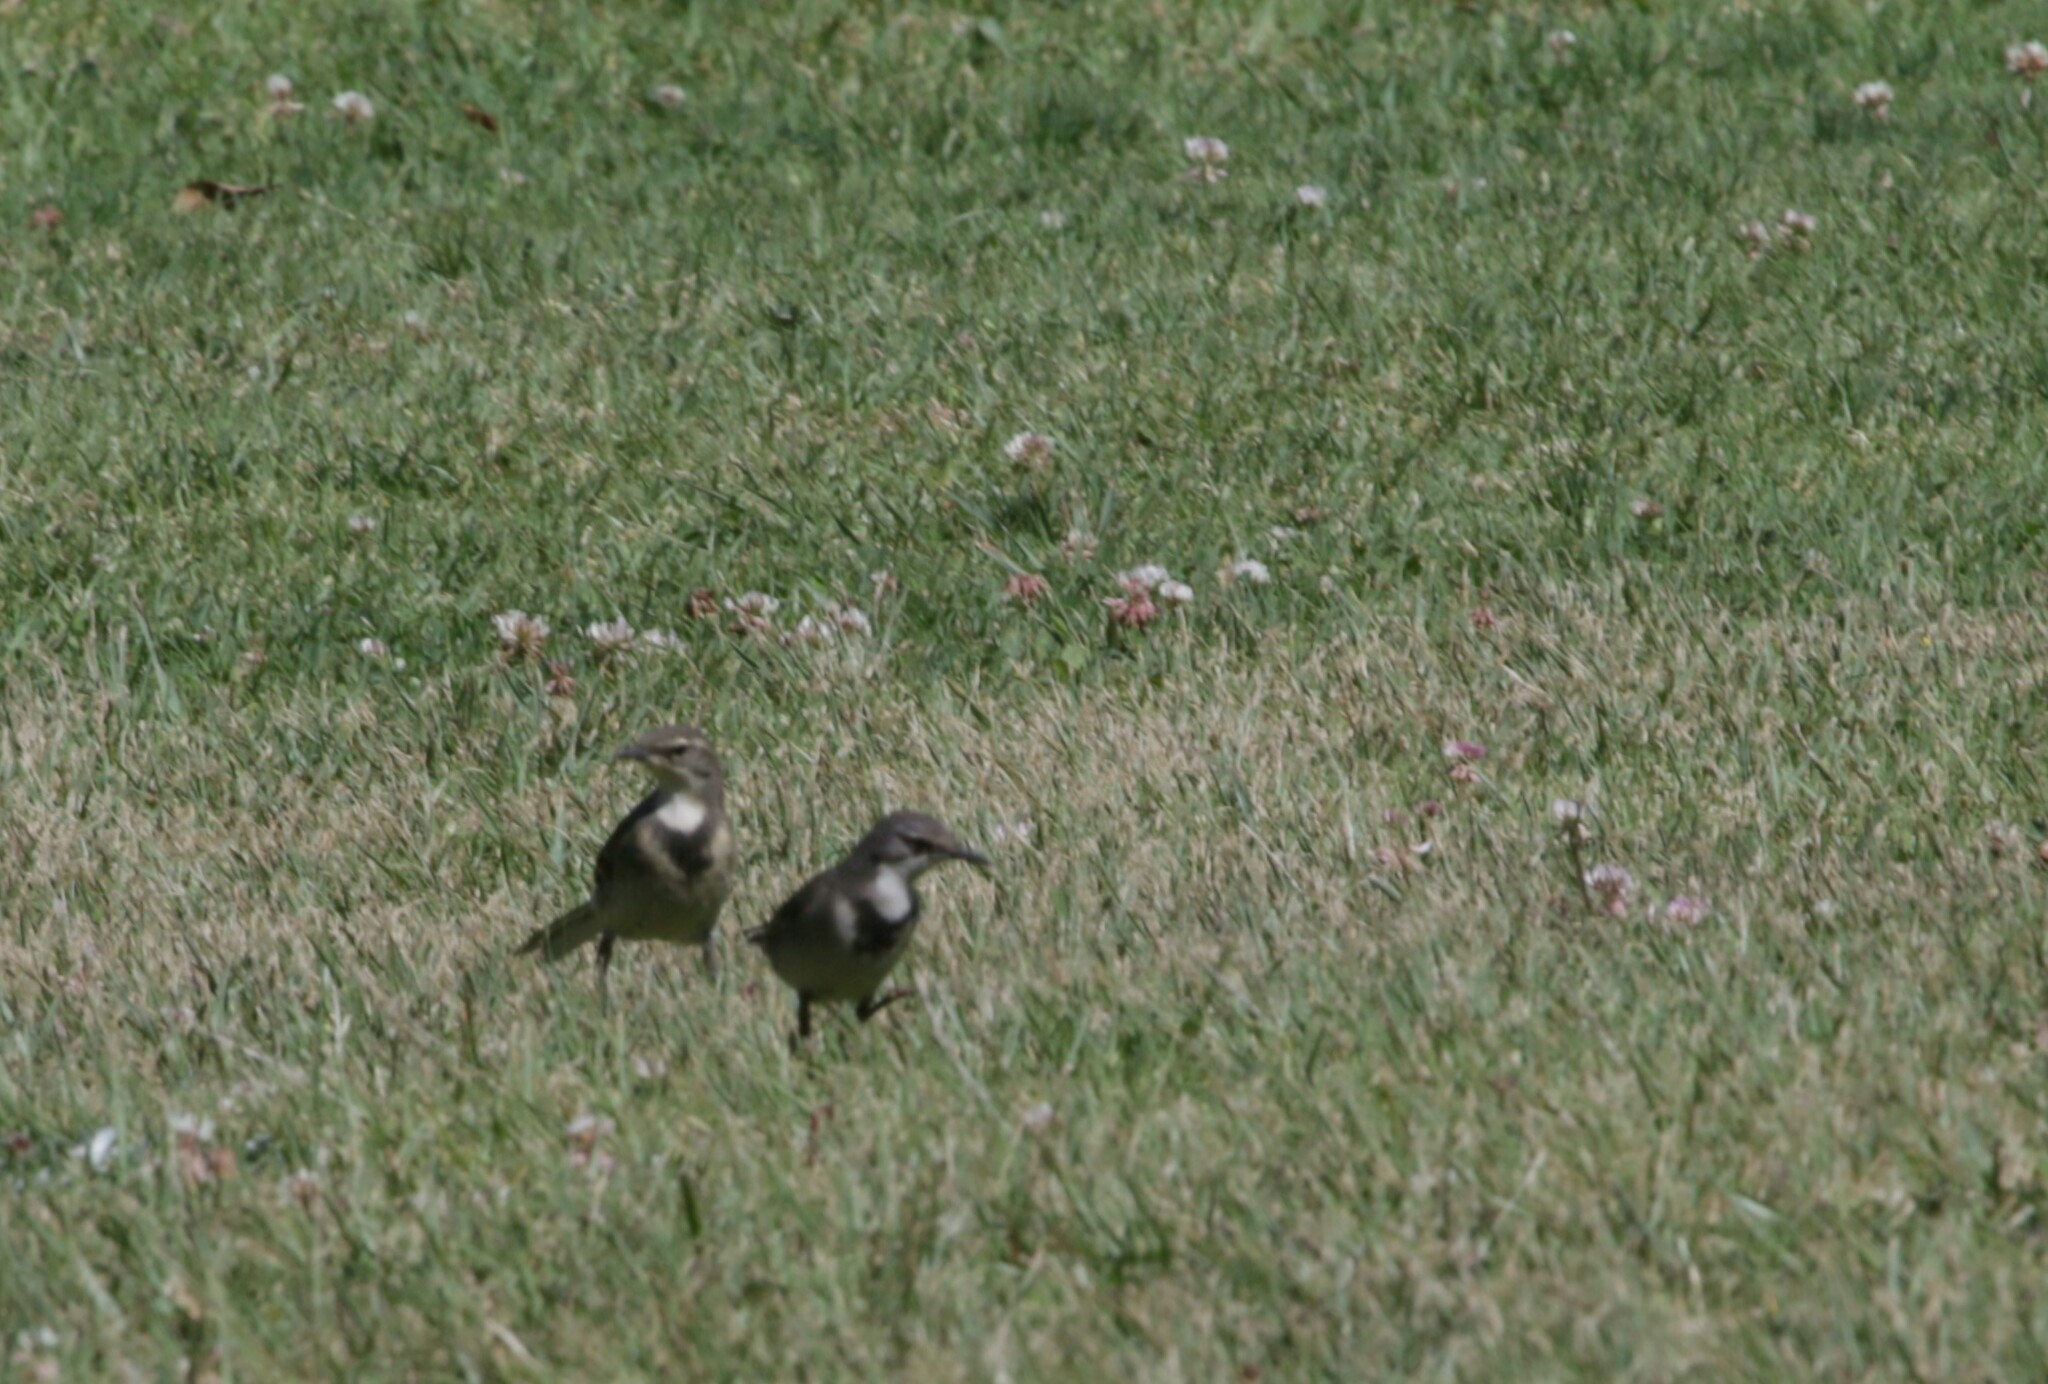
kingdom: Animalia
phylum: Chordata
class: Aves
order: Passeriformes
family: Motacillidae
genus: Motacilla
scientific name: Motacilla capensis
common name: Cape wagtail
